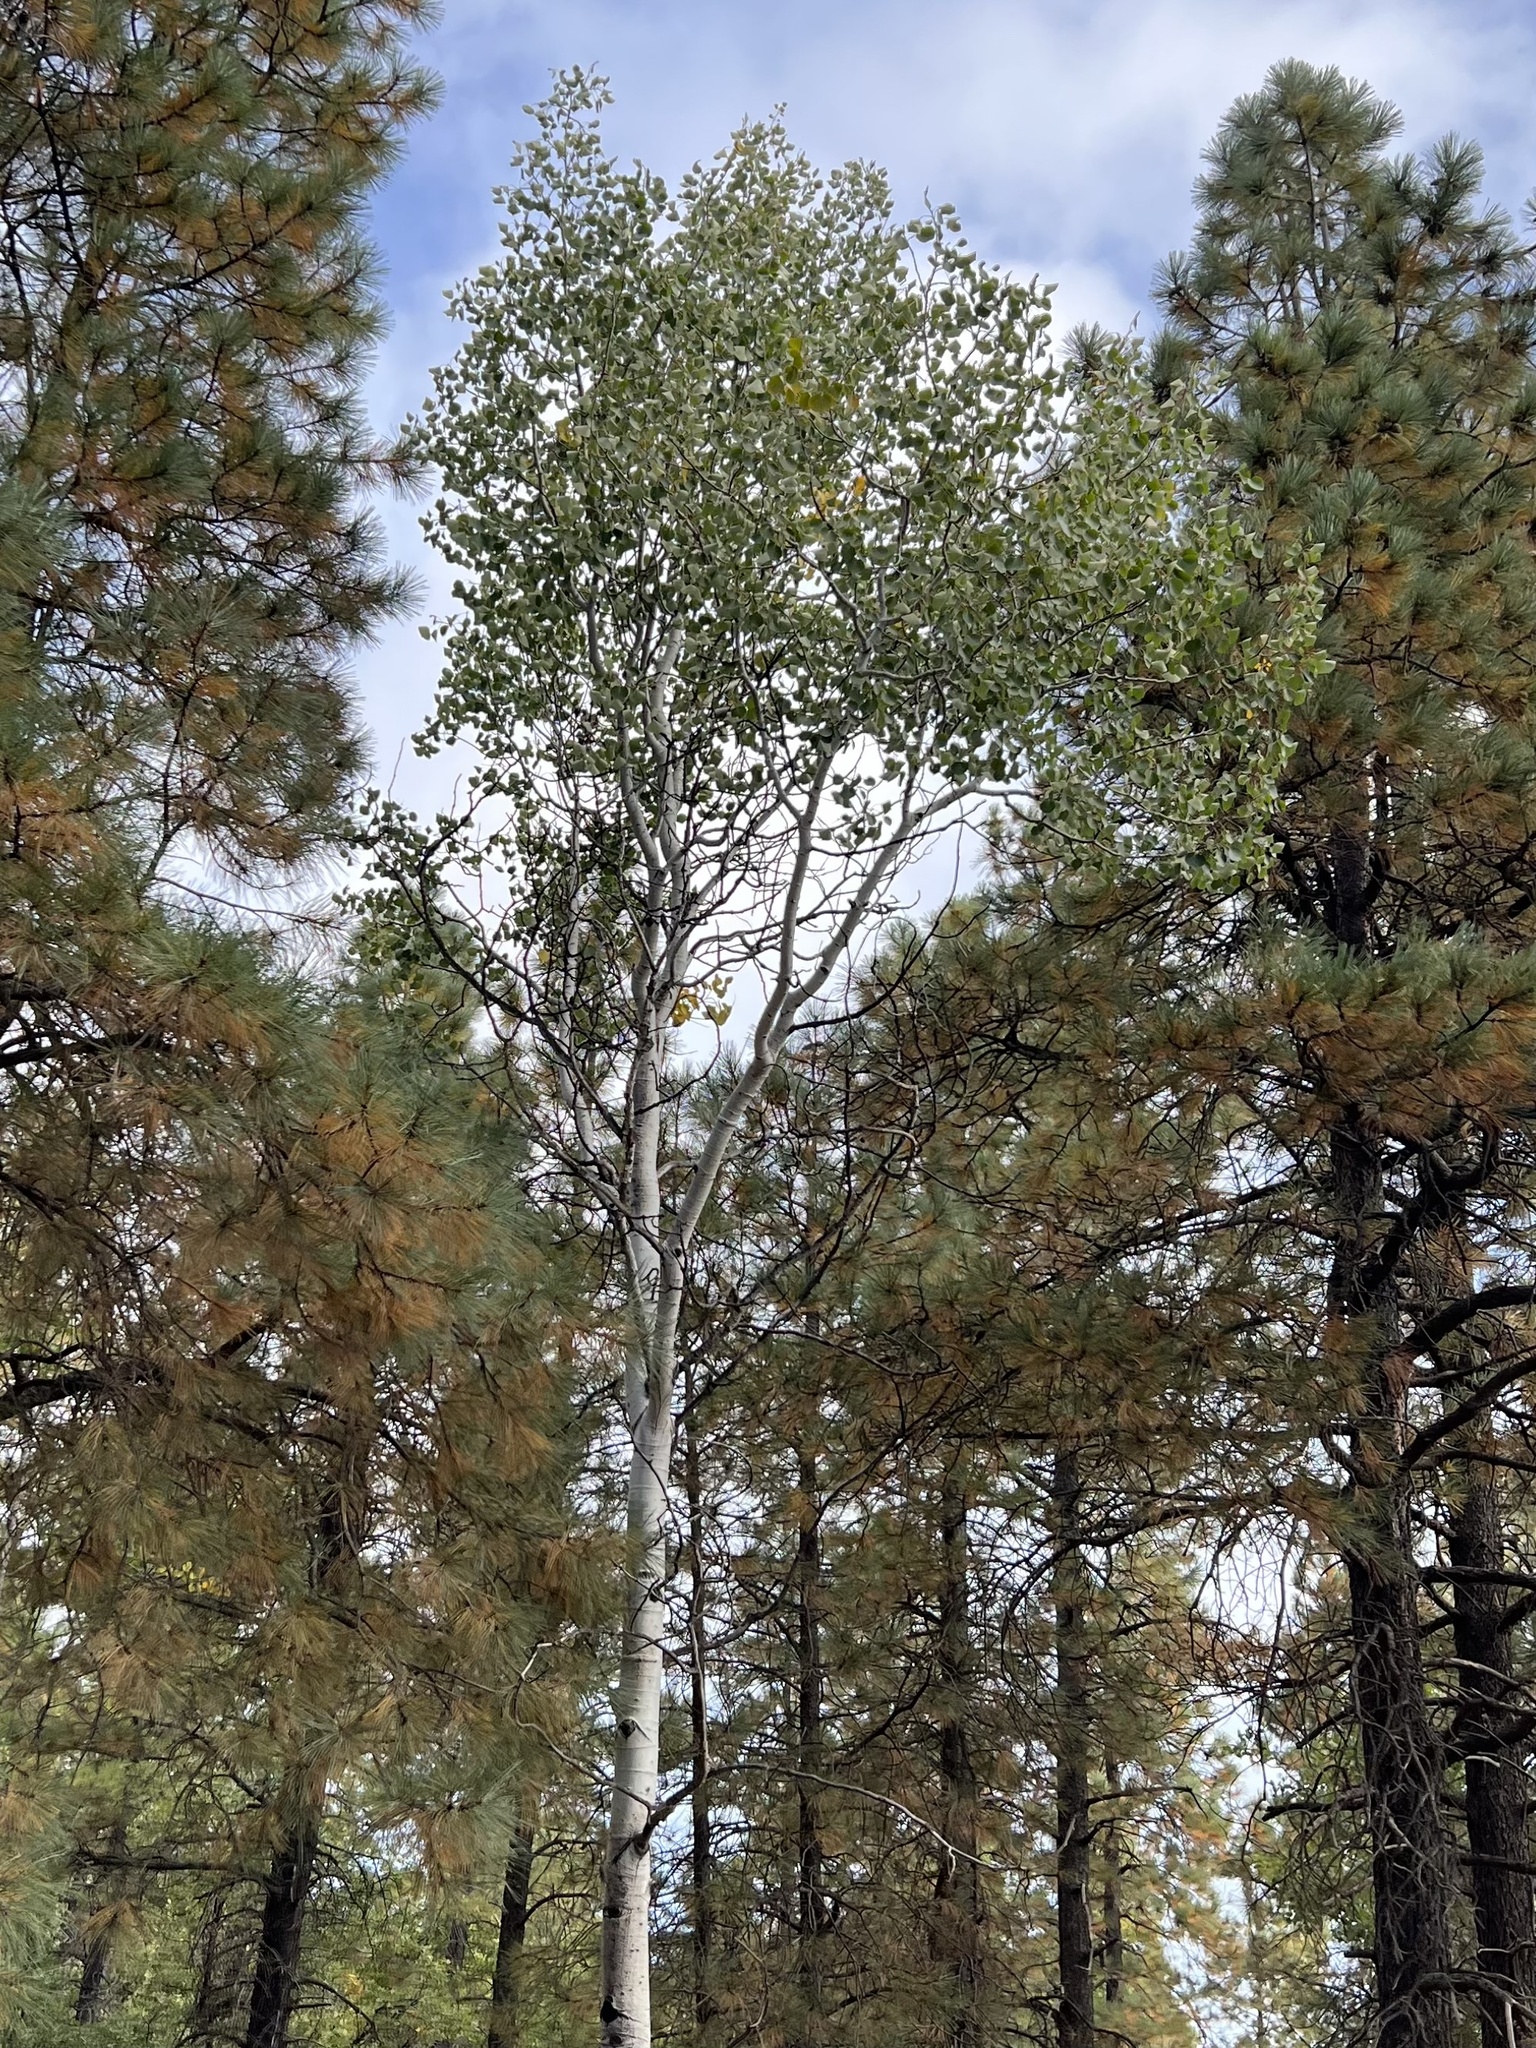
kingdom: Plantae
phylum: Tracheophyta
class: Magnoliopsida
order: Malpighiales
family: Salicaceae
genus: Populus
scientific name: Populus tremuloides
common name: Quaking aspen
